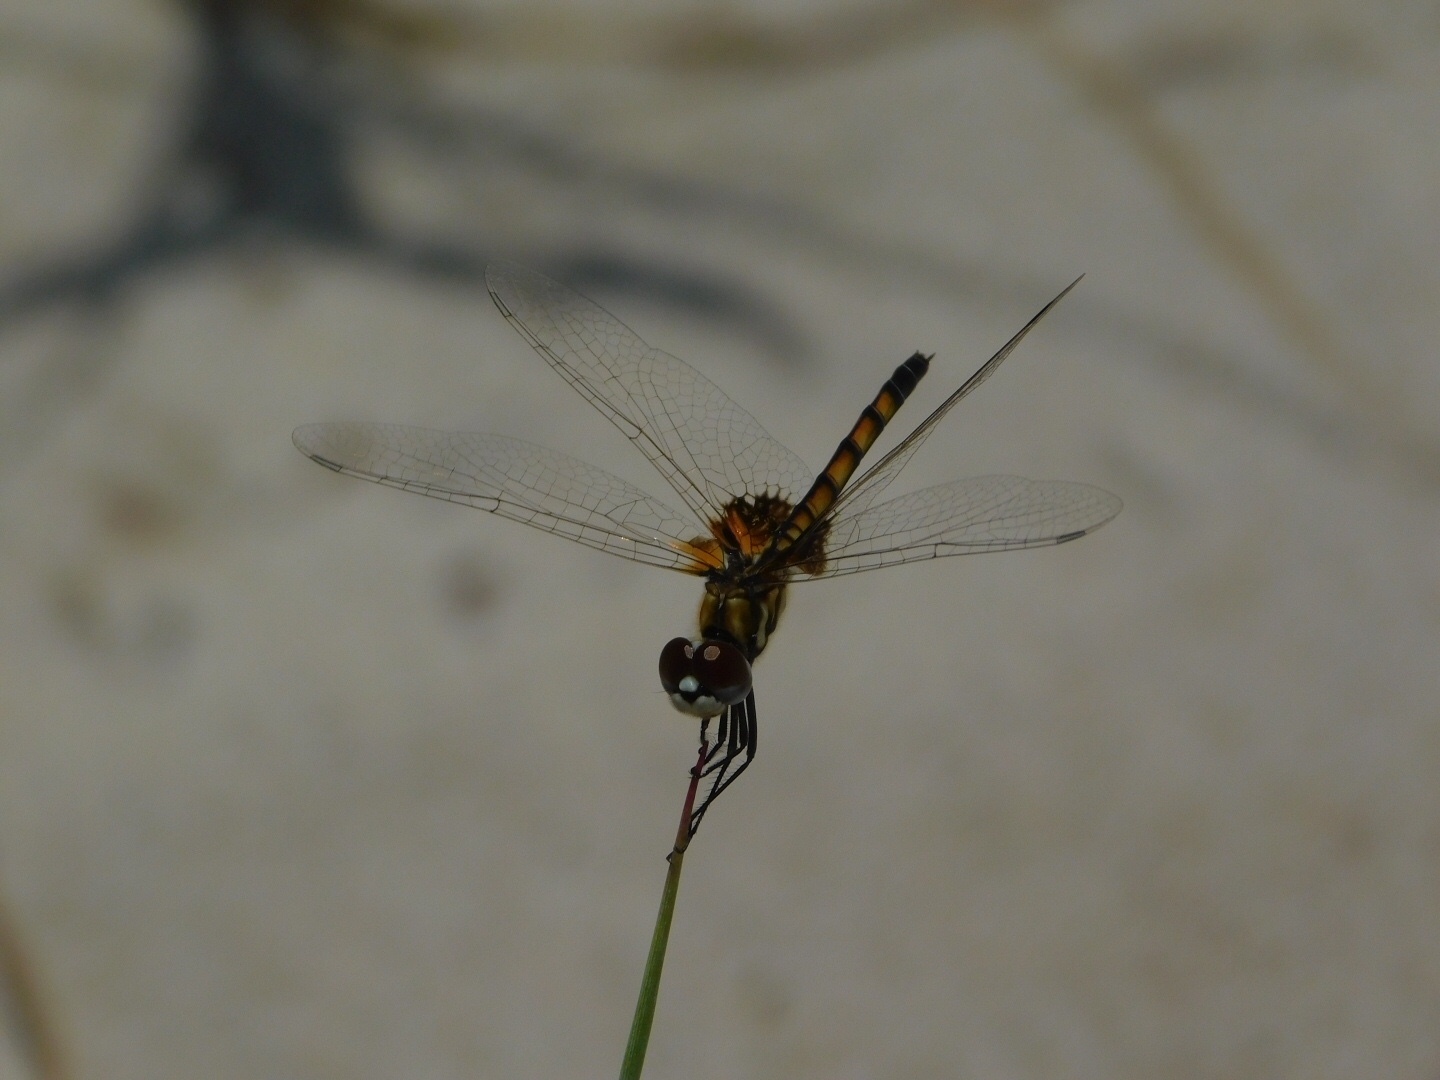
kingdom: Animalia
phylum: Arthropoda
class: Insecta
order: Odonata
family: Libellulidae
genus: Macrodiplax
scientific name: Macrodiplax balteata
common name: Marl pennant
